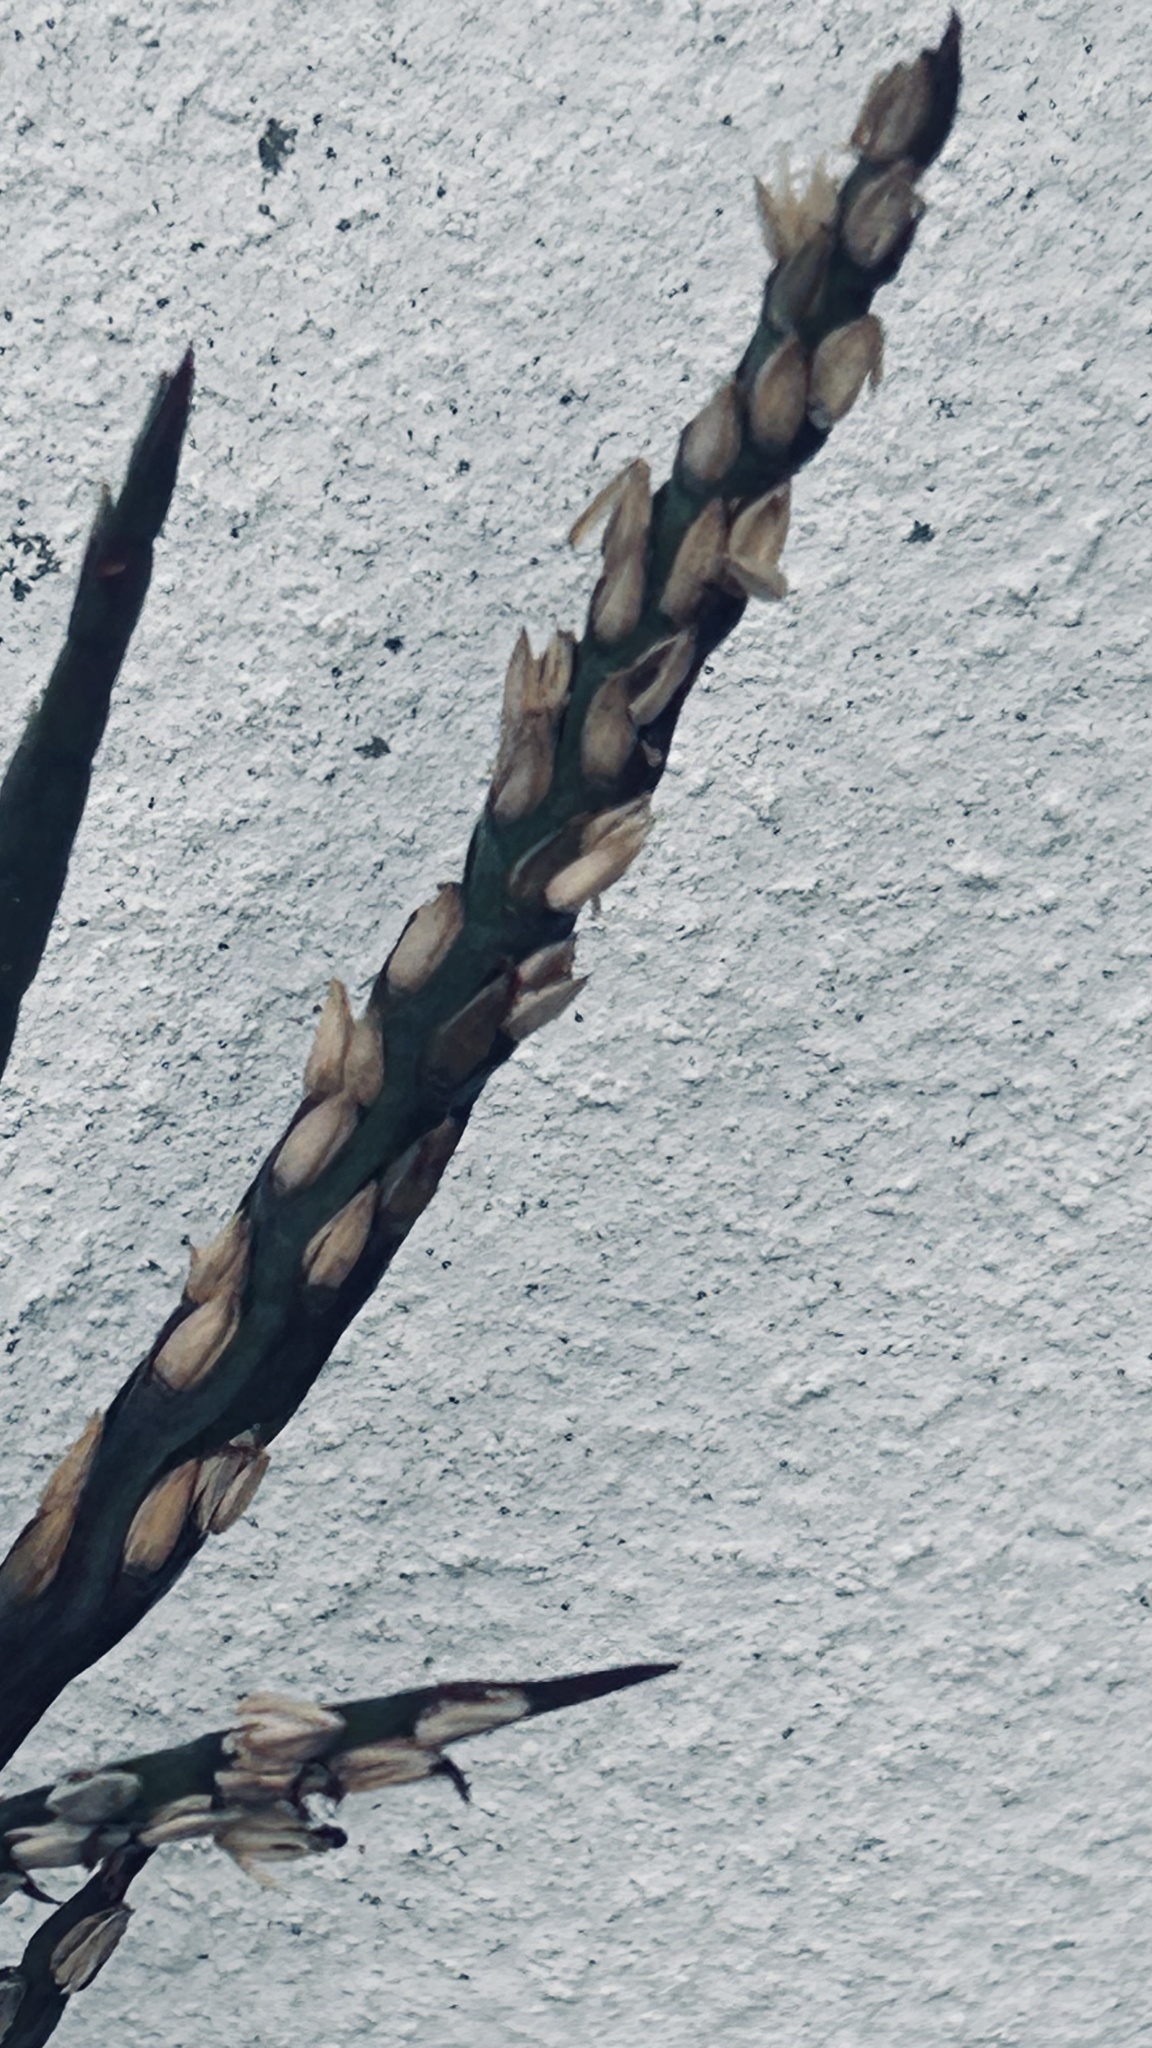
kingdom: Plantae
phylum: Tracheophyta
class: Liliopsida
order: Poales
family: Poaceae
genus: Stenotaphrum
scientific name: Stenotaphrum secundatum
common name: St. augustine grass
